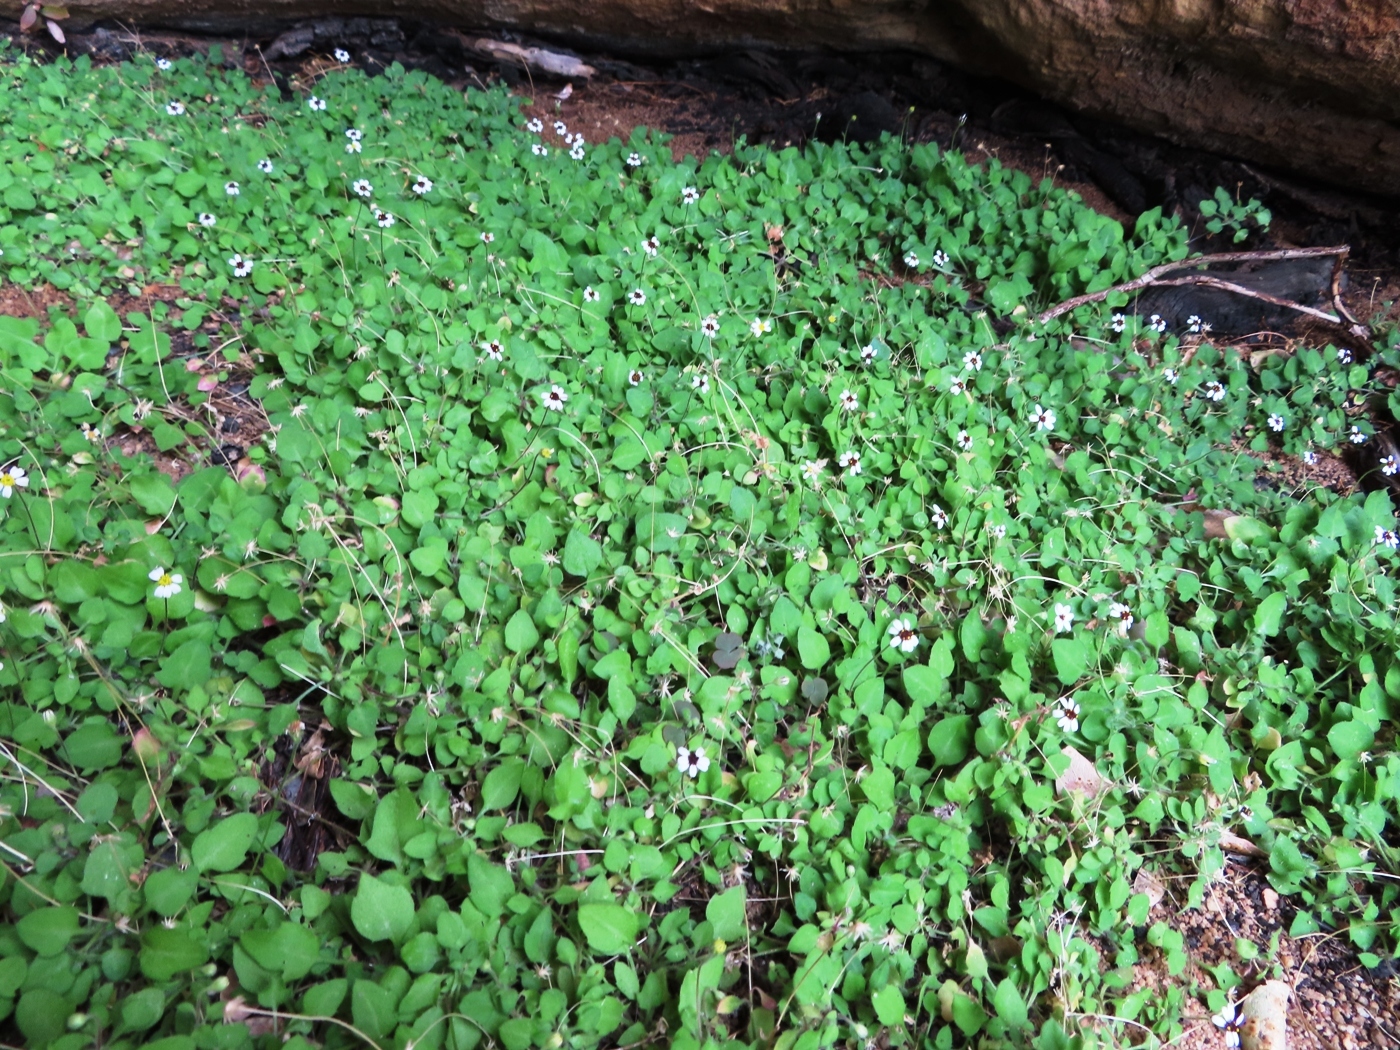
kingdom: Plantae
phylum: Tracheophyta
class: Magnoliopsida
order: Asterales
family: Asteraceae
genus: Felicia
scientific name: Felicia cymbalariae
